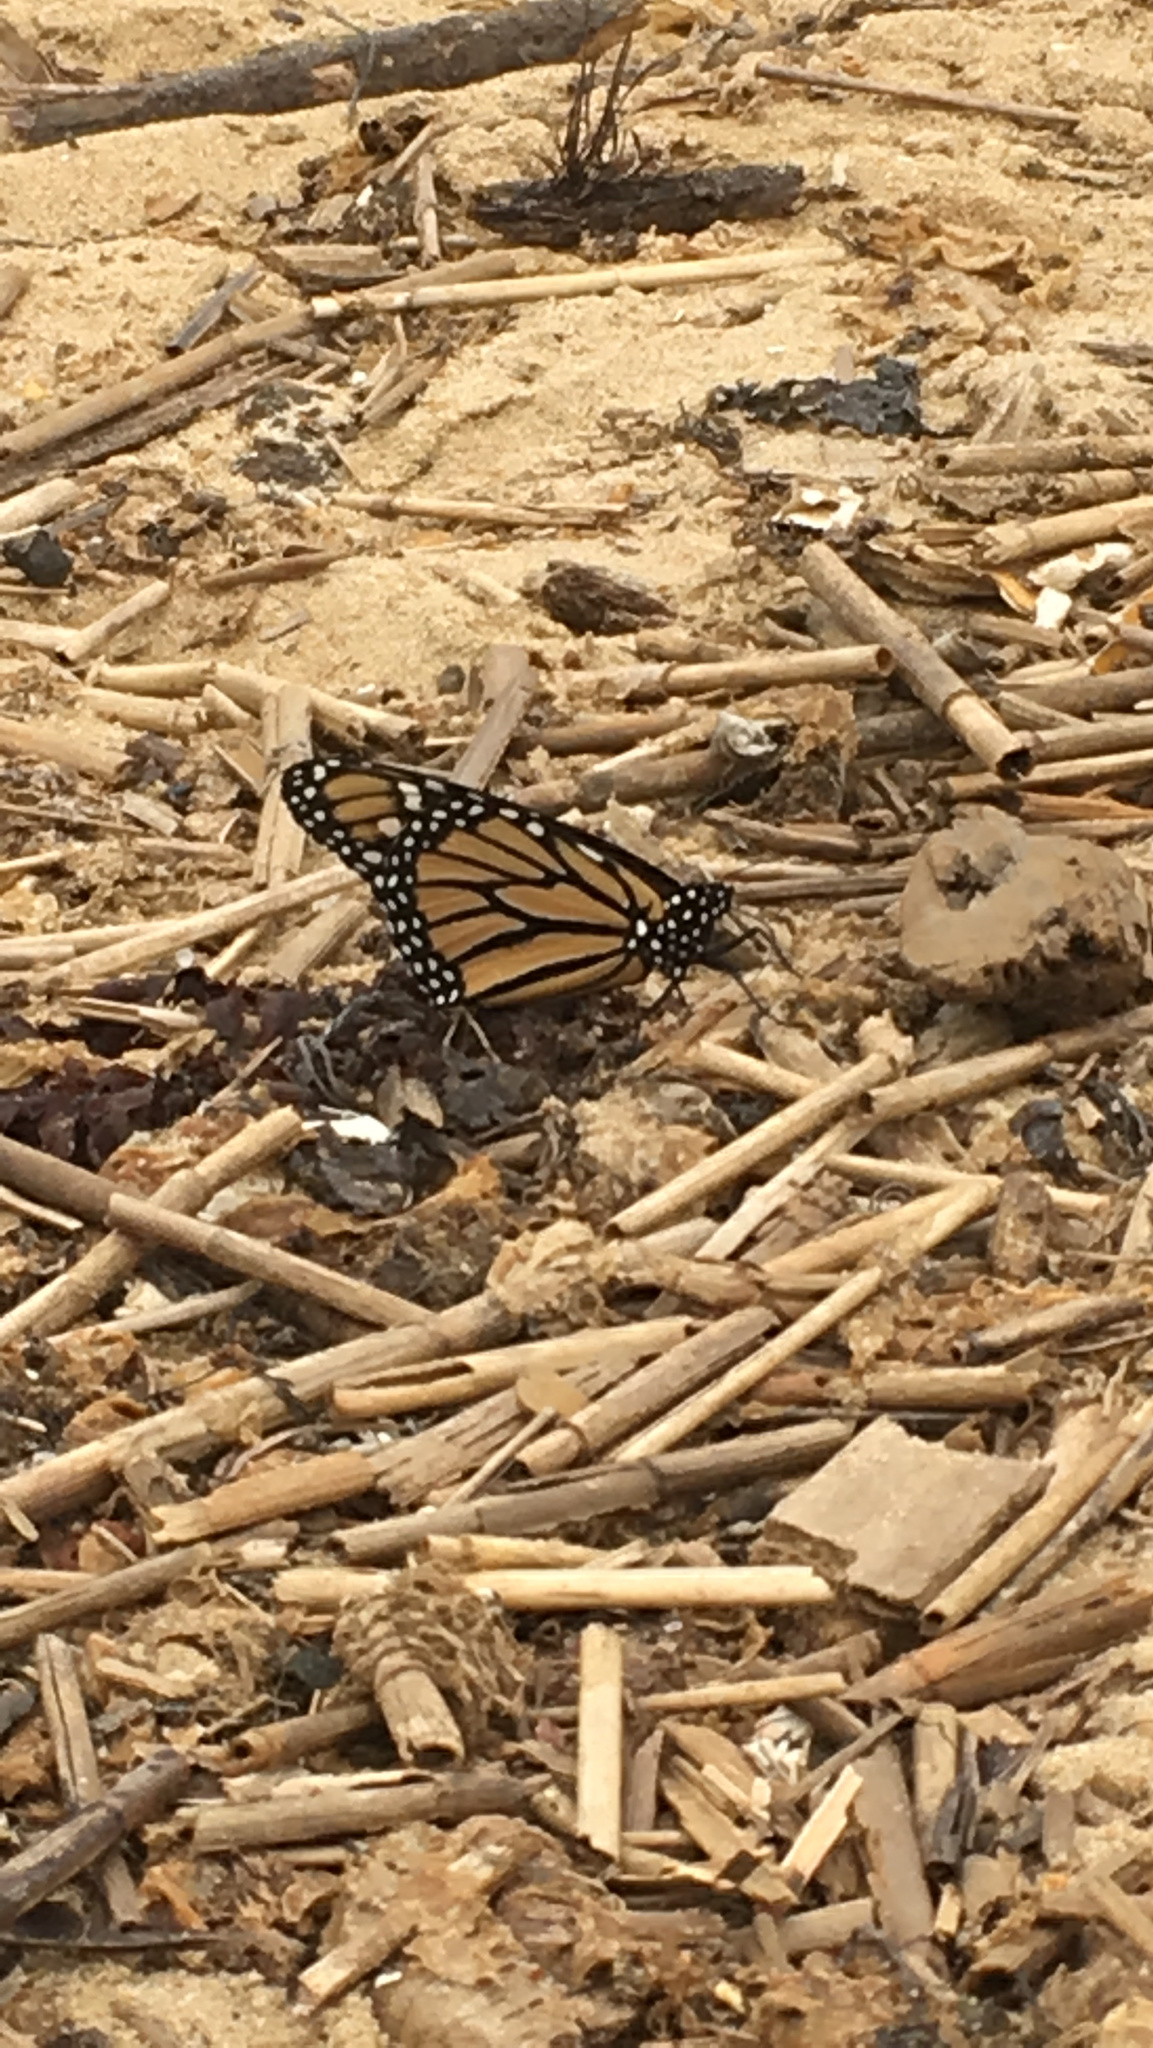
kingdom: Animalia
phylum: Arthropoda
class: Insecta
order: Lepidoptera
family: Nymphalidae
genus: Danaus
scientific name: Danaus plexippus
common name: Monarch
